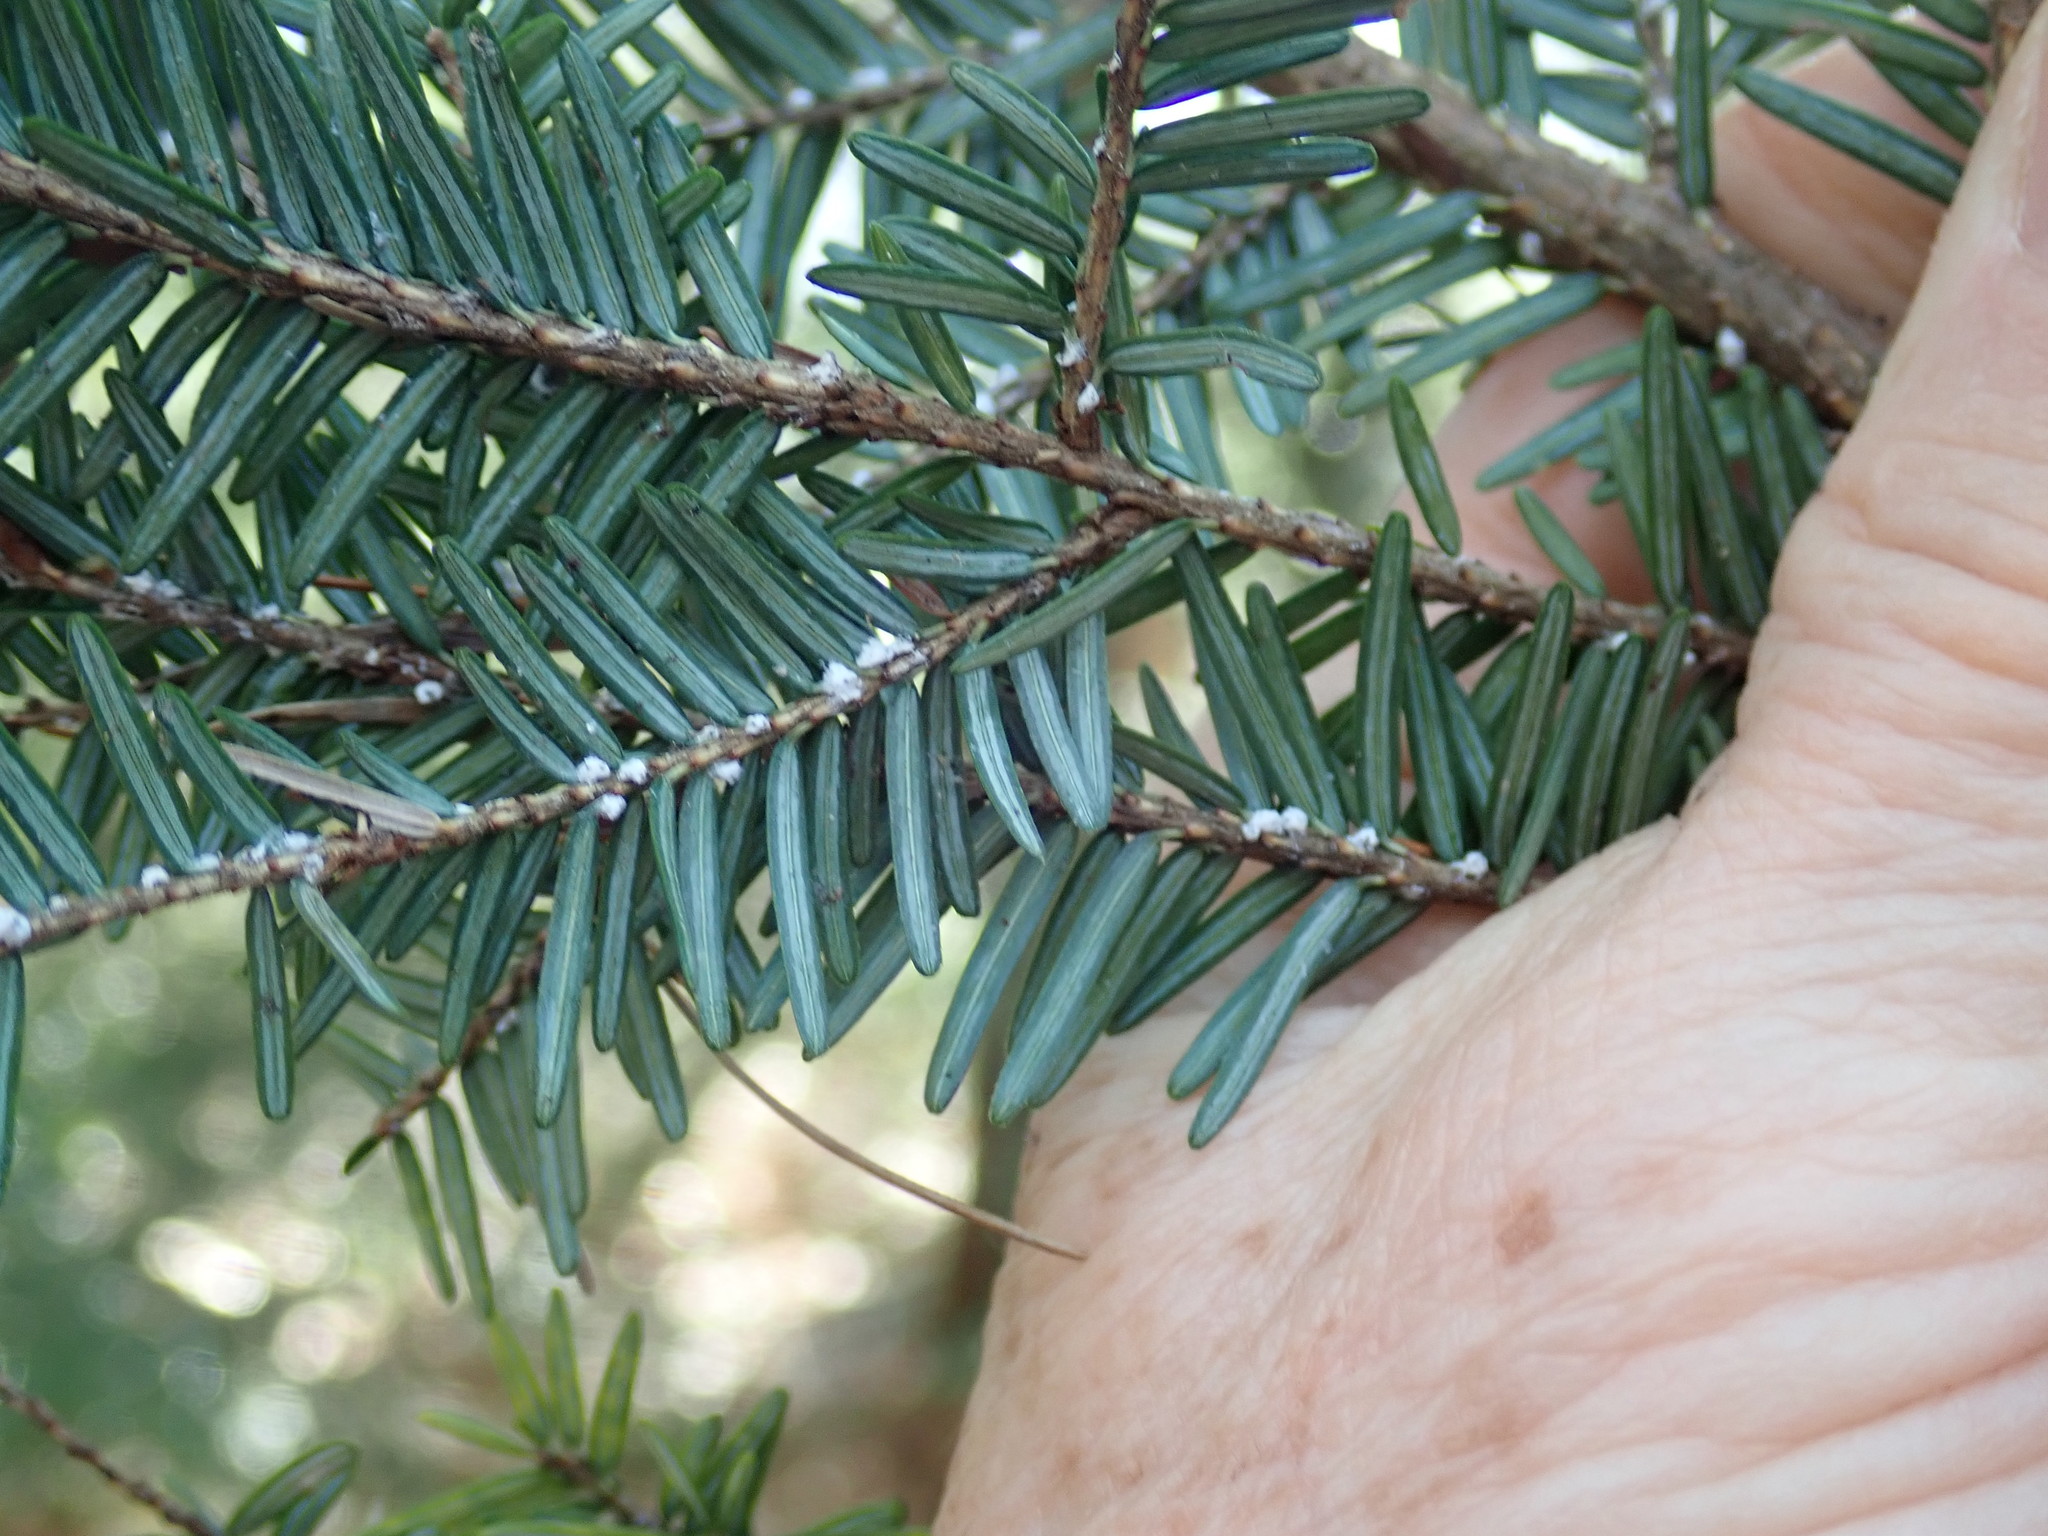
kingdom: Animalia
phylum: Arthropoda
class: Insecta
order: Hemiptera
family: Adelgidae
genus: Adelges
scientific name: Adelges tsugae
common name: Hemlock woolly adelgid
